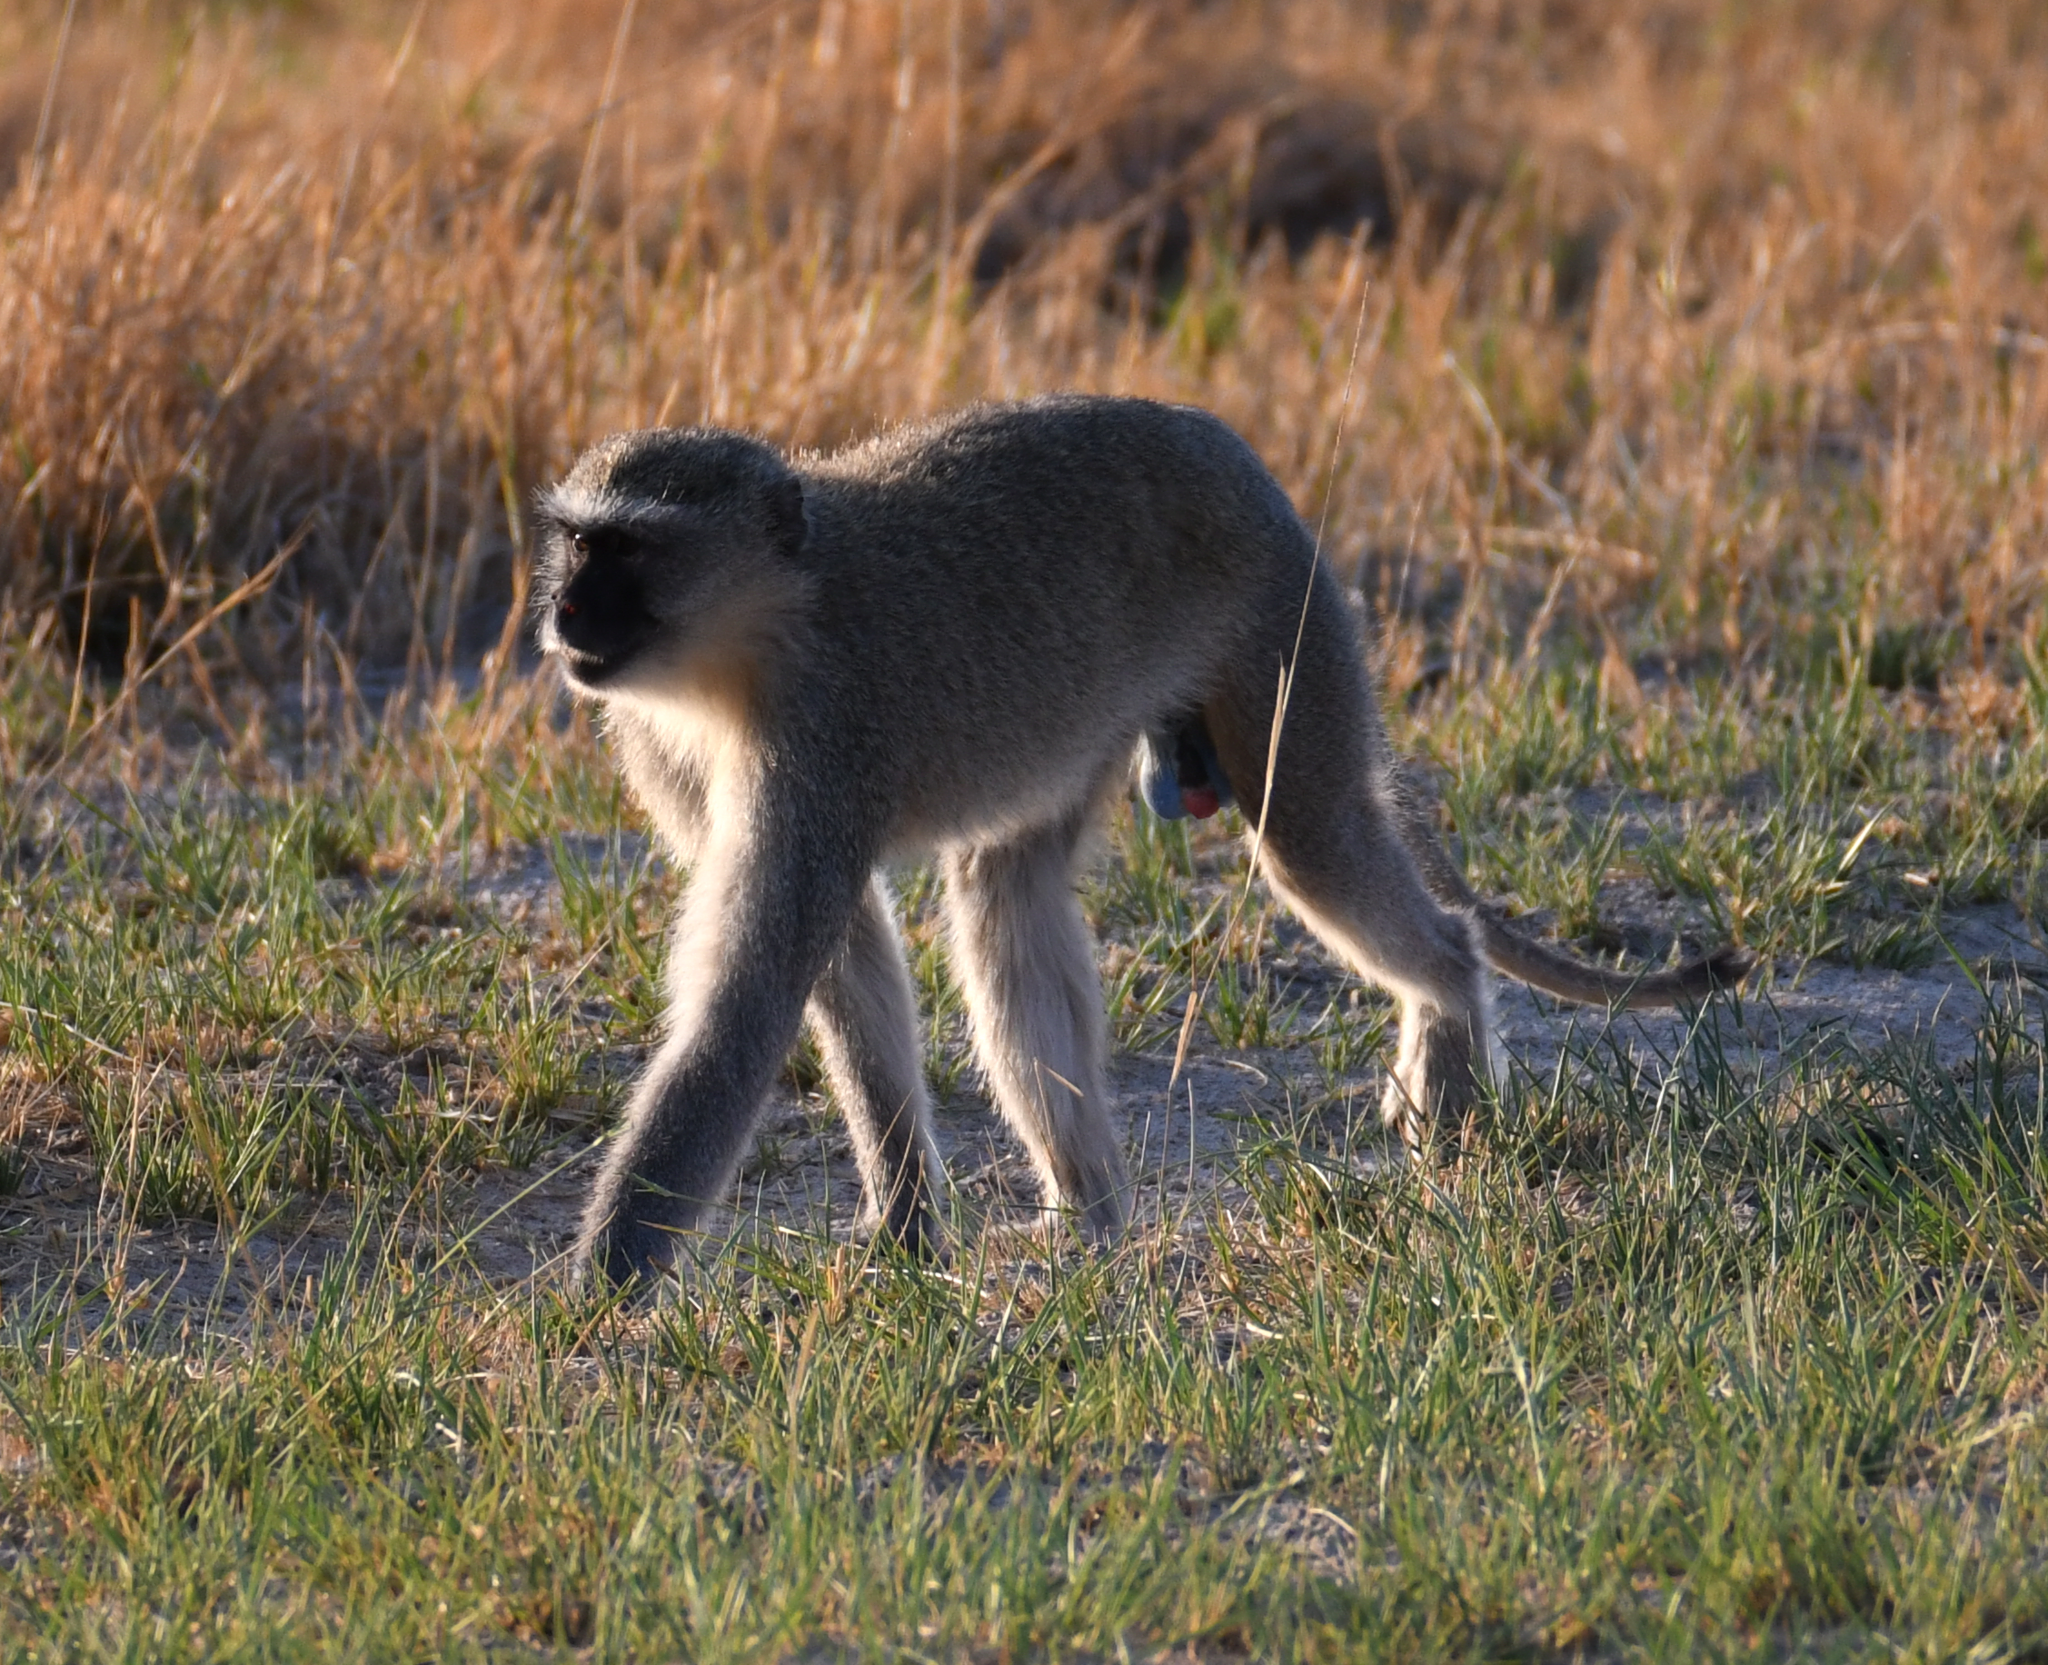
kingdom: Animalia
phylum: Chordata
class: Mammalia
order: Primates
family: Cercopithecidae
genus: Chlorocebus
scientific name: Chlorocebus pygerythrus
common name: Vervet monkey
